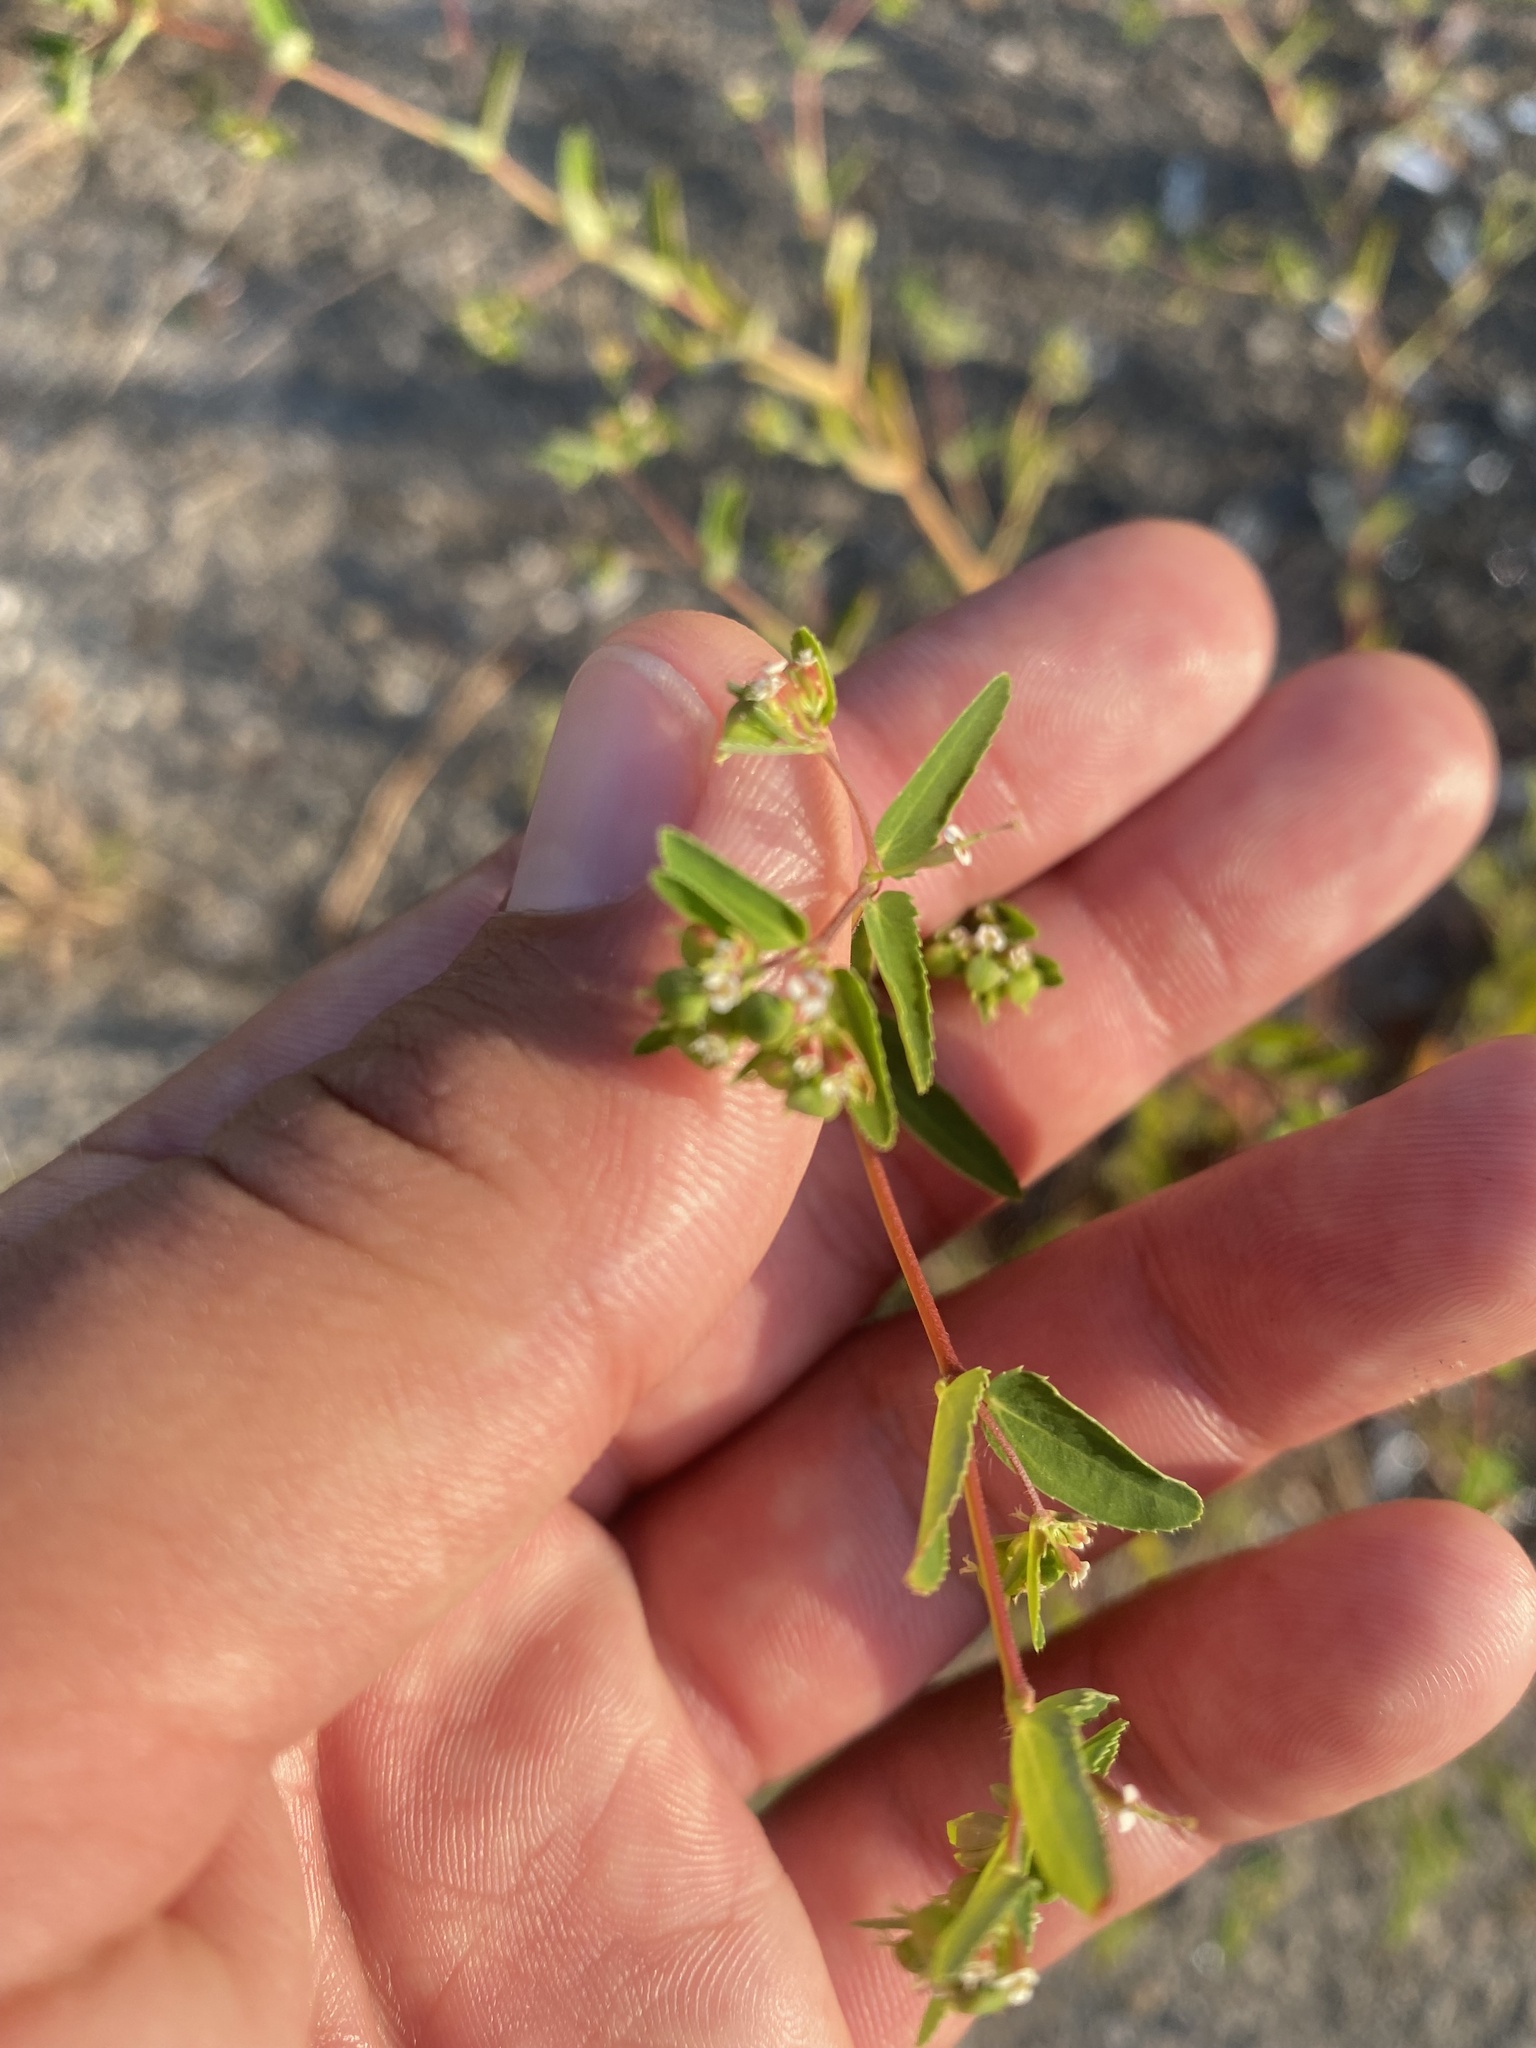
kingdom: Plantae
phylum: Tracheophyta
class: Magnoliopsida
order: Malpighiales
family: Euphorbiaceae
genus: Euphorbia
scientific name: Euphorbia nutans
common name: Eyebane
